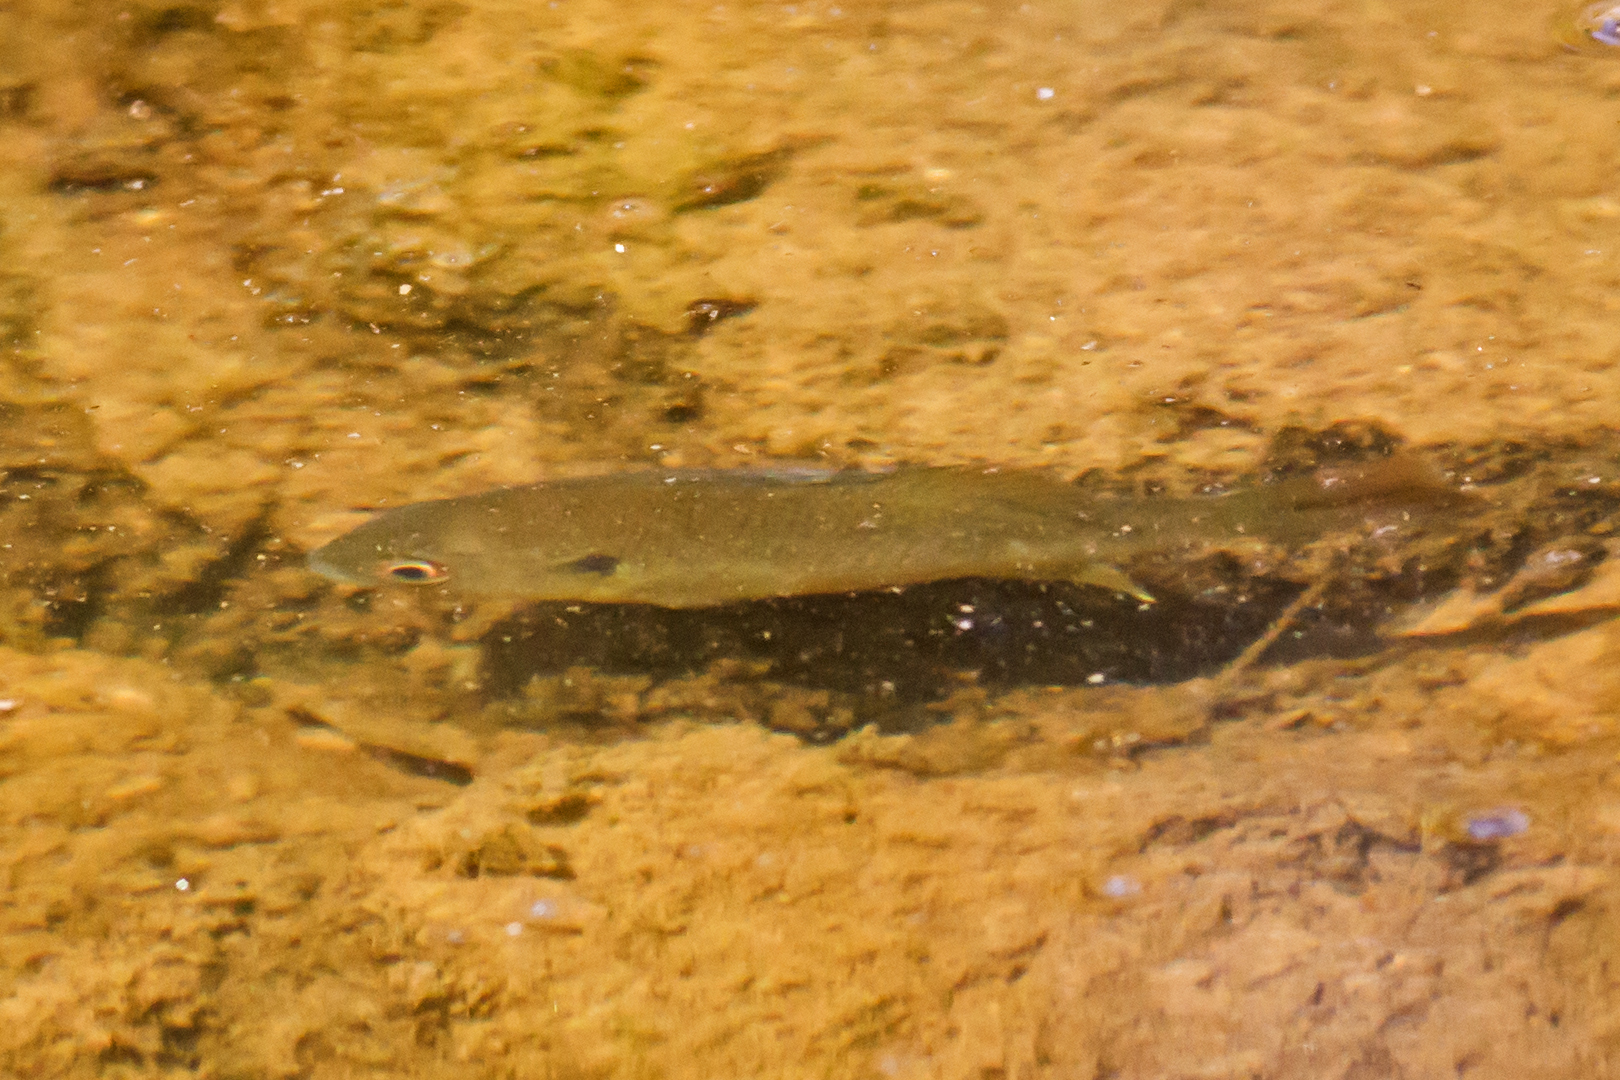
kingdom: Animalia
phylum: Chordata
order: Perciformes
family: Centrarchidae
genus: Lepomis
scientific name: Lepomis macrochirus
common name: Bluegill
